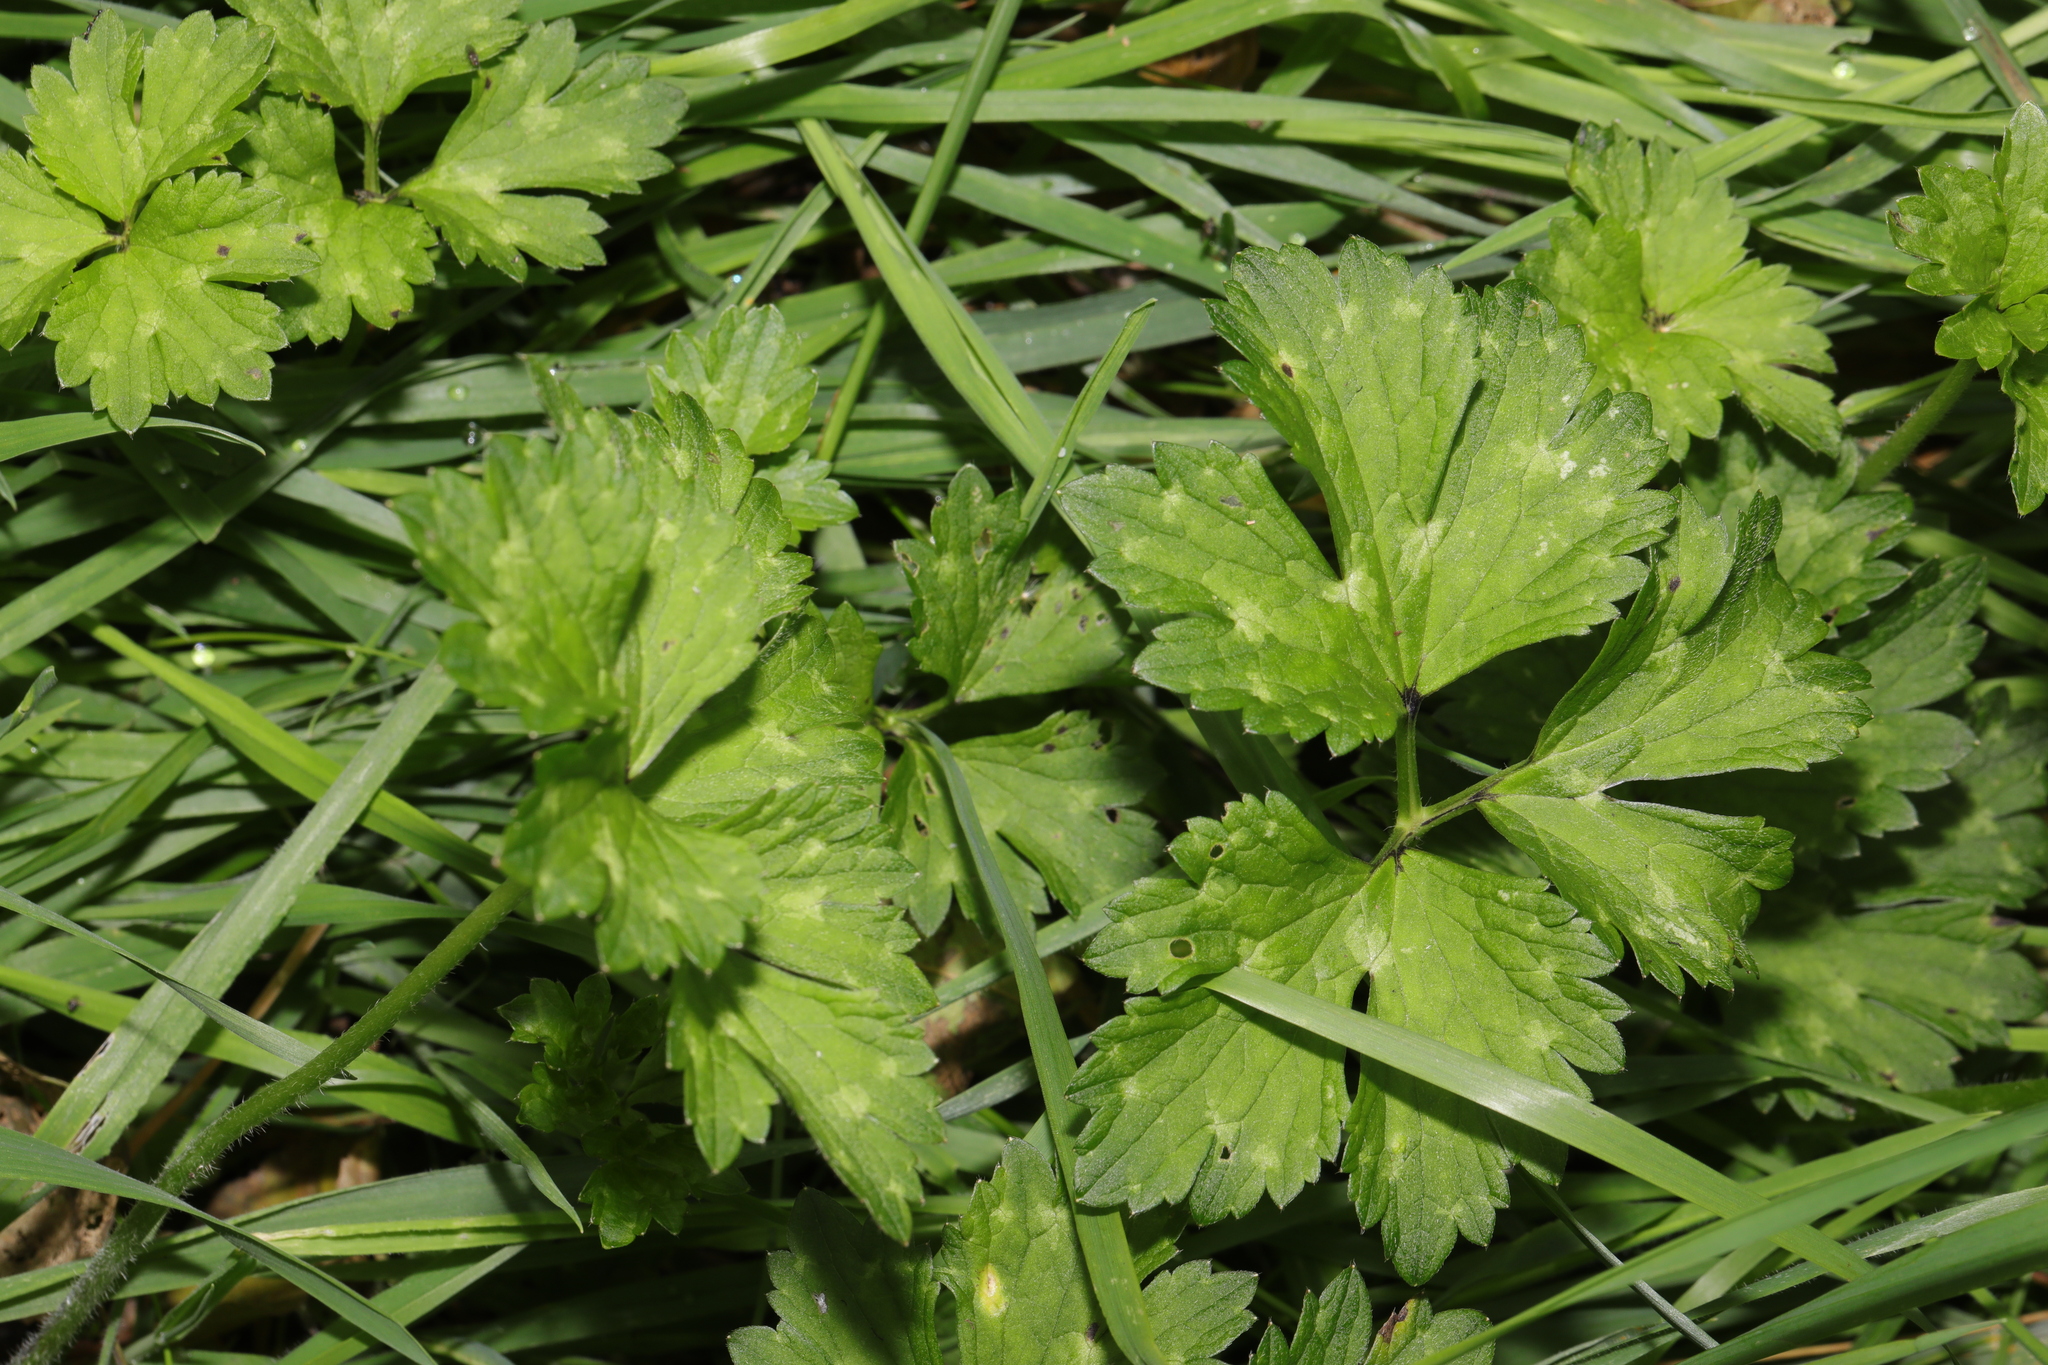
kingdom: Plantae
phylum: Tracheophyta
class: Magnoliopsida
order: Ranunculales
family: Ranunculaceae
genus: Ranunculus
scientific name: Ranunculus repens
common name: Creeping buttercup
